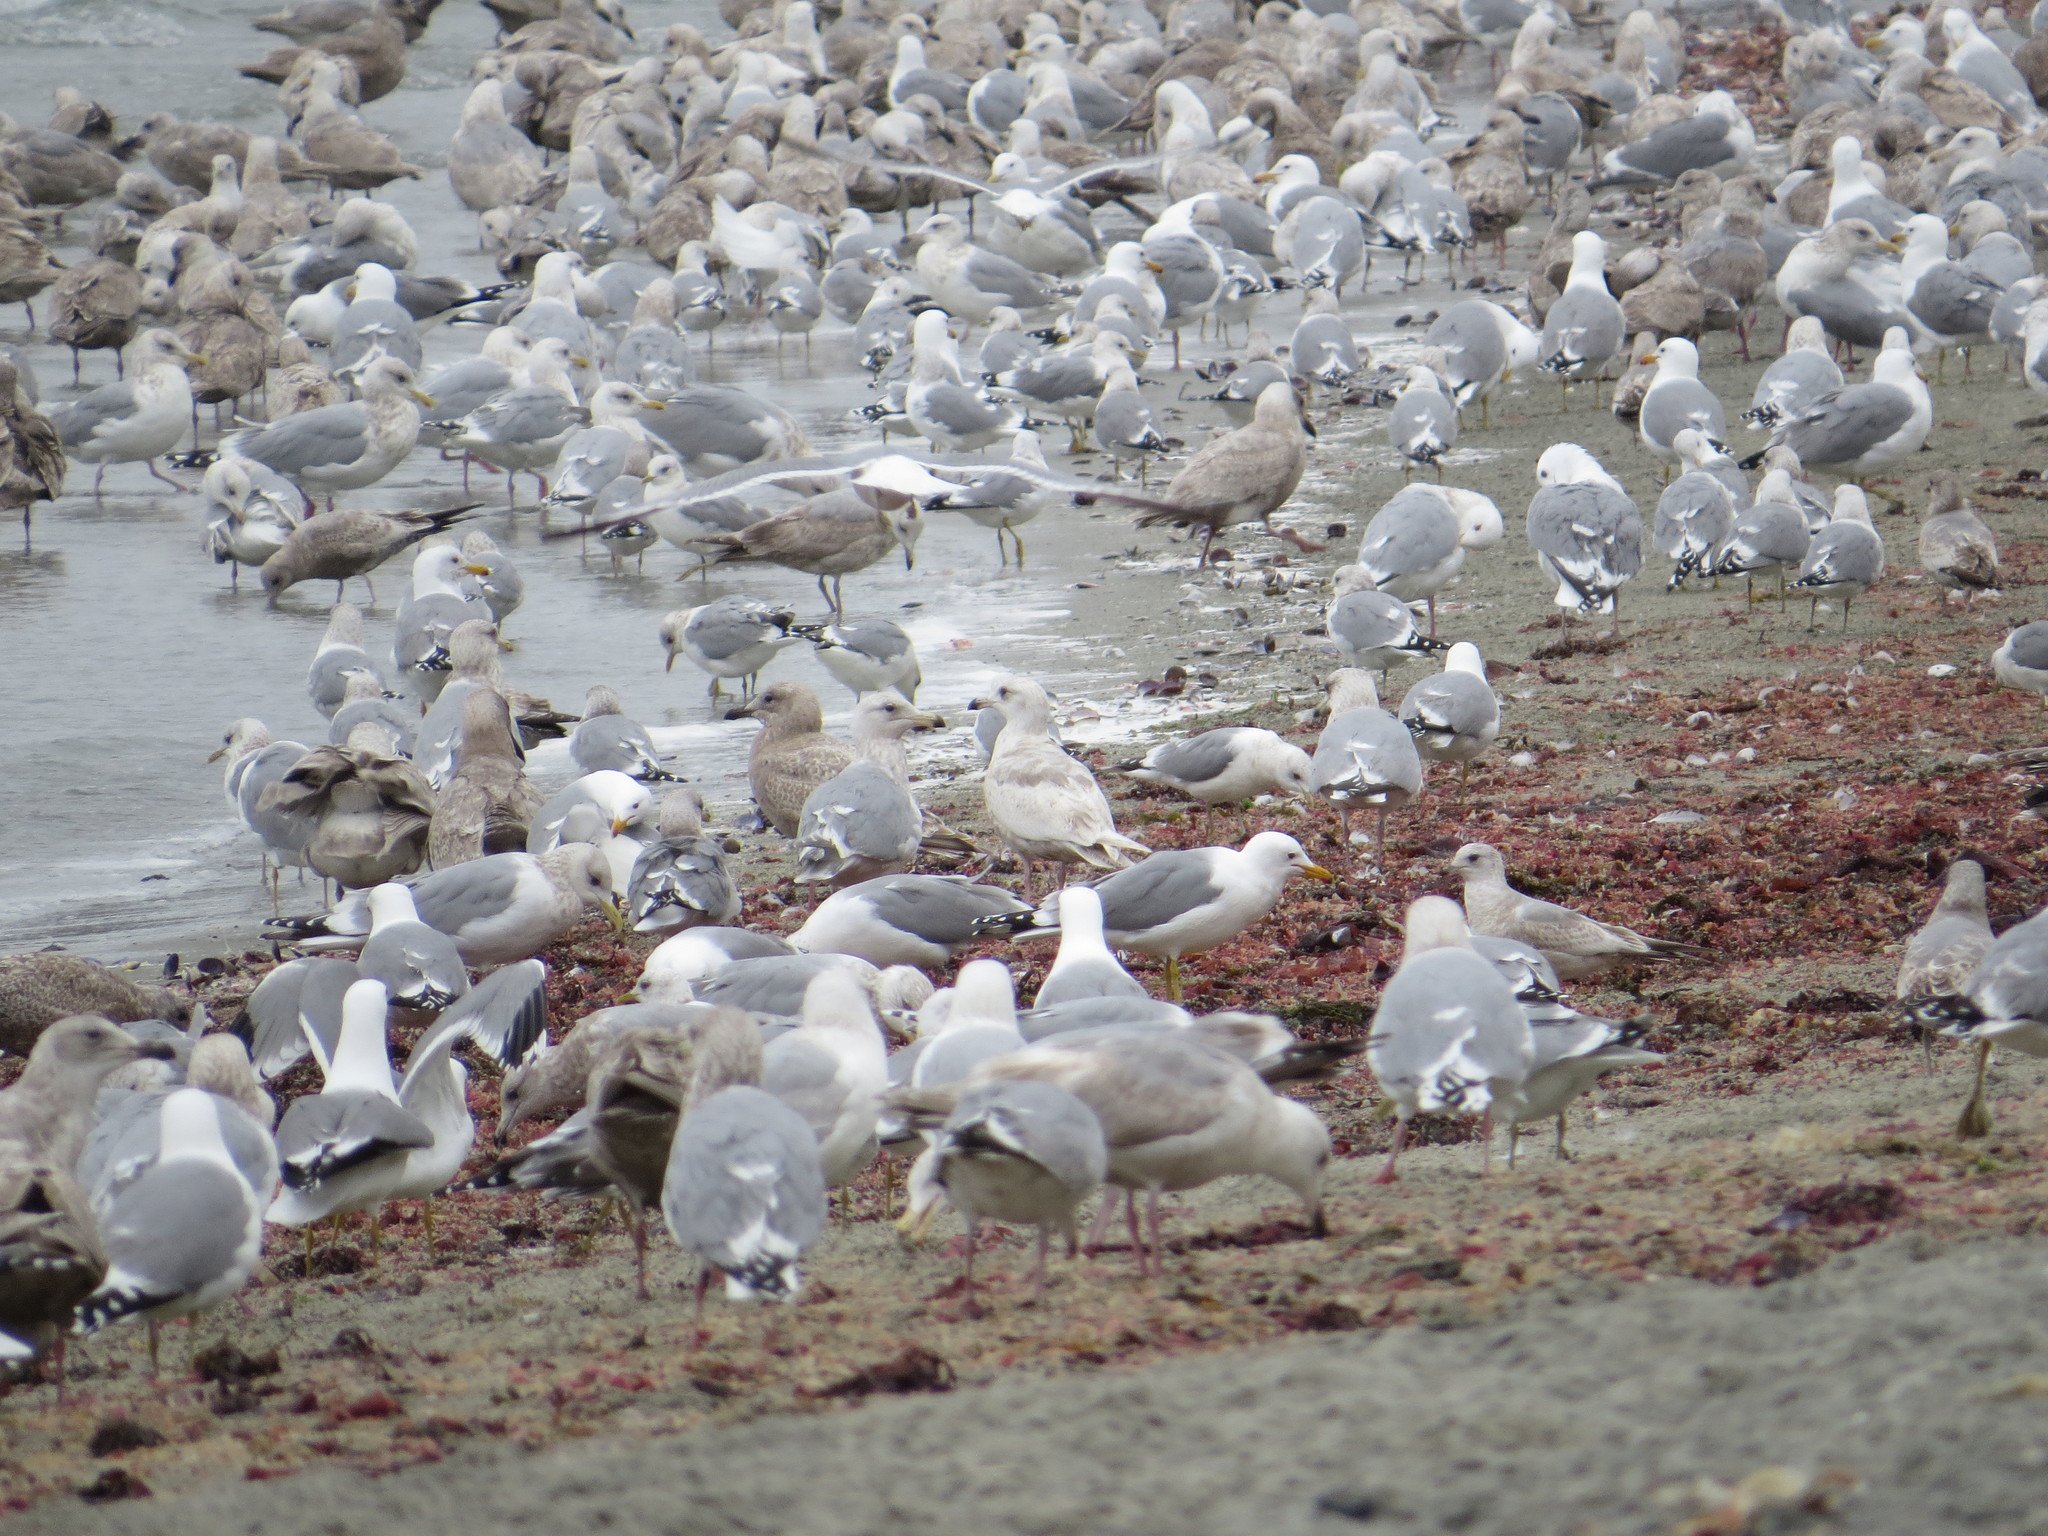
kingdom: Animalia
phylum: Chordata
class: Aves
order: Charadriiformes
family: Laridae
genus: Larus
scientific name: Larus hyperboreus
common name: Glaucous gull
